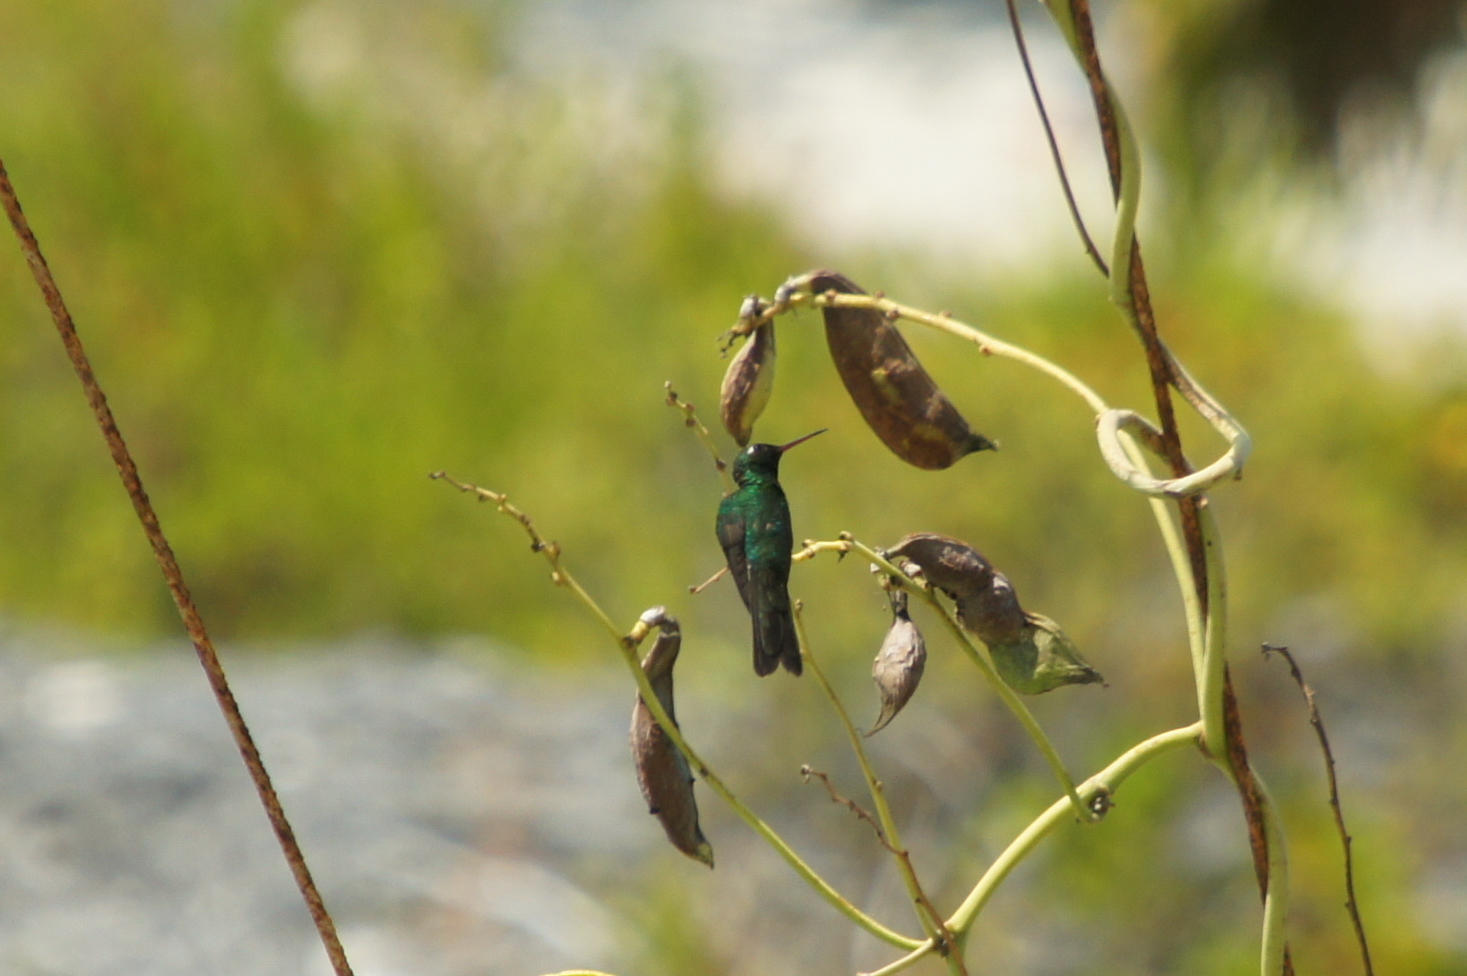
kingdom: Animalia
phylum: Chordata
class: Aves
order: Apodiformes
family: Trochilidae
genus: Riccordia
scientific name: Riccordia ricordii
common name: Cuban emerald
